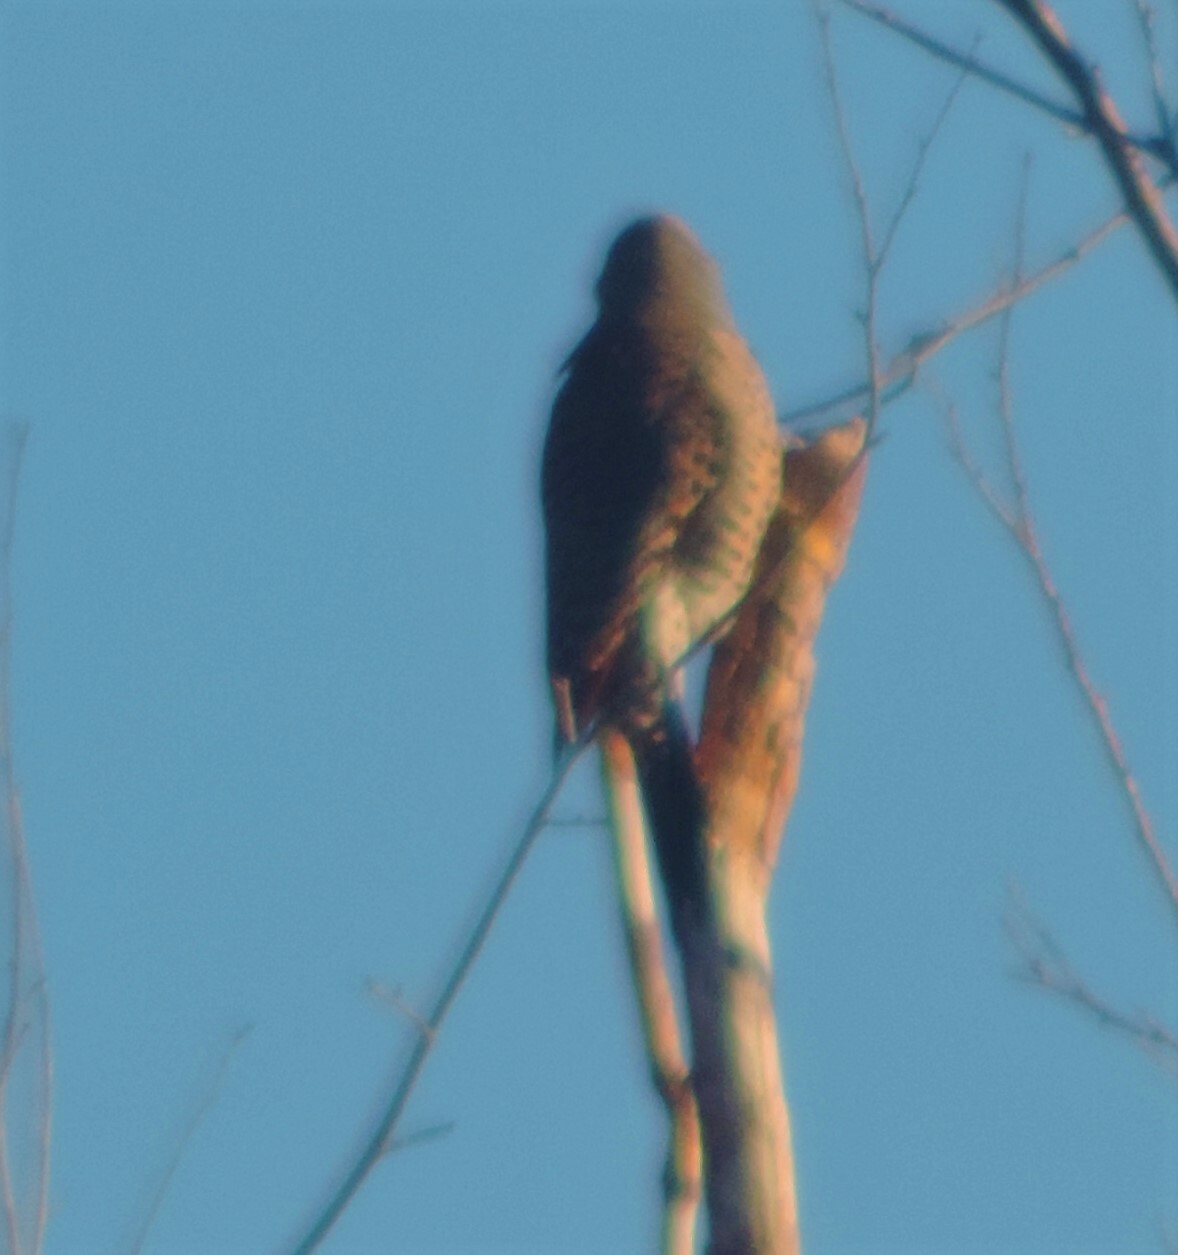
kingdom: Animalia
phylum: Chordata
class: Aves
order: Piciformes
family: Picidae
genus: Colaptes
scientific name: Colaptes auratus
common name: Northern flicker
